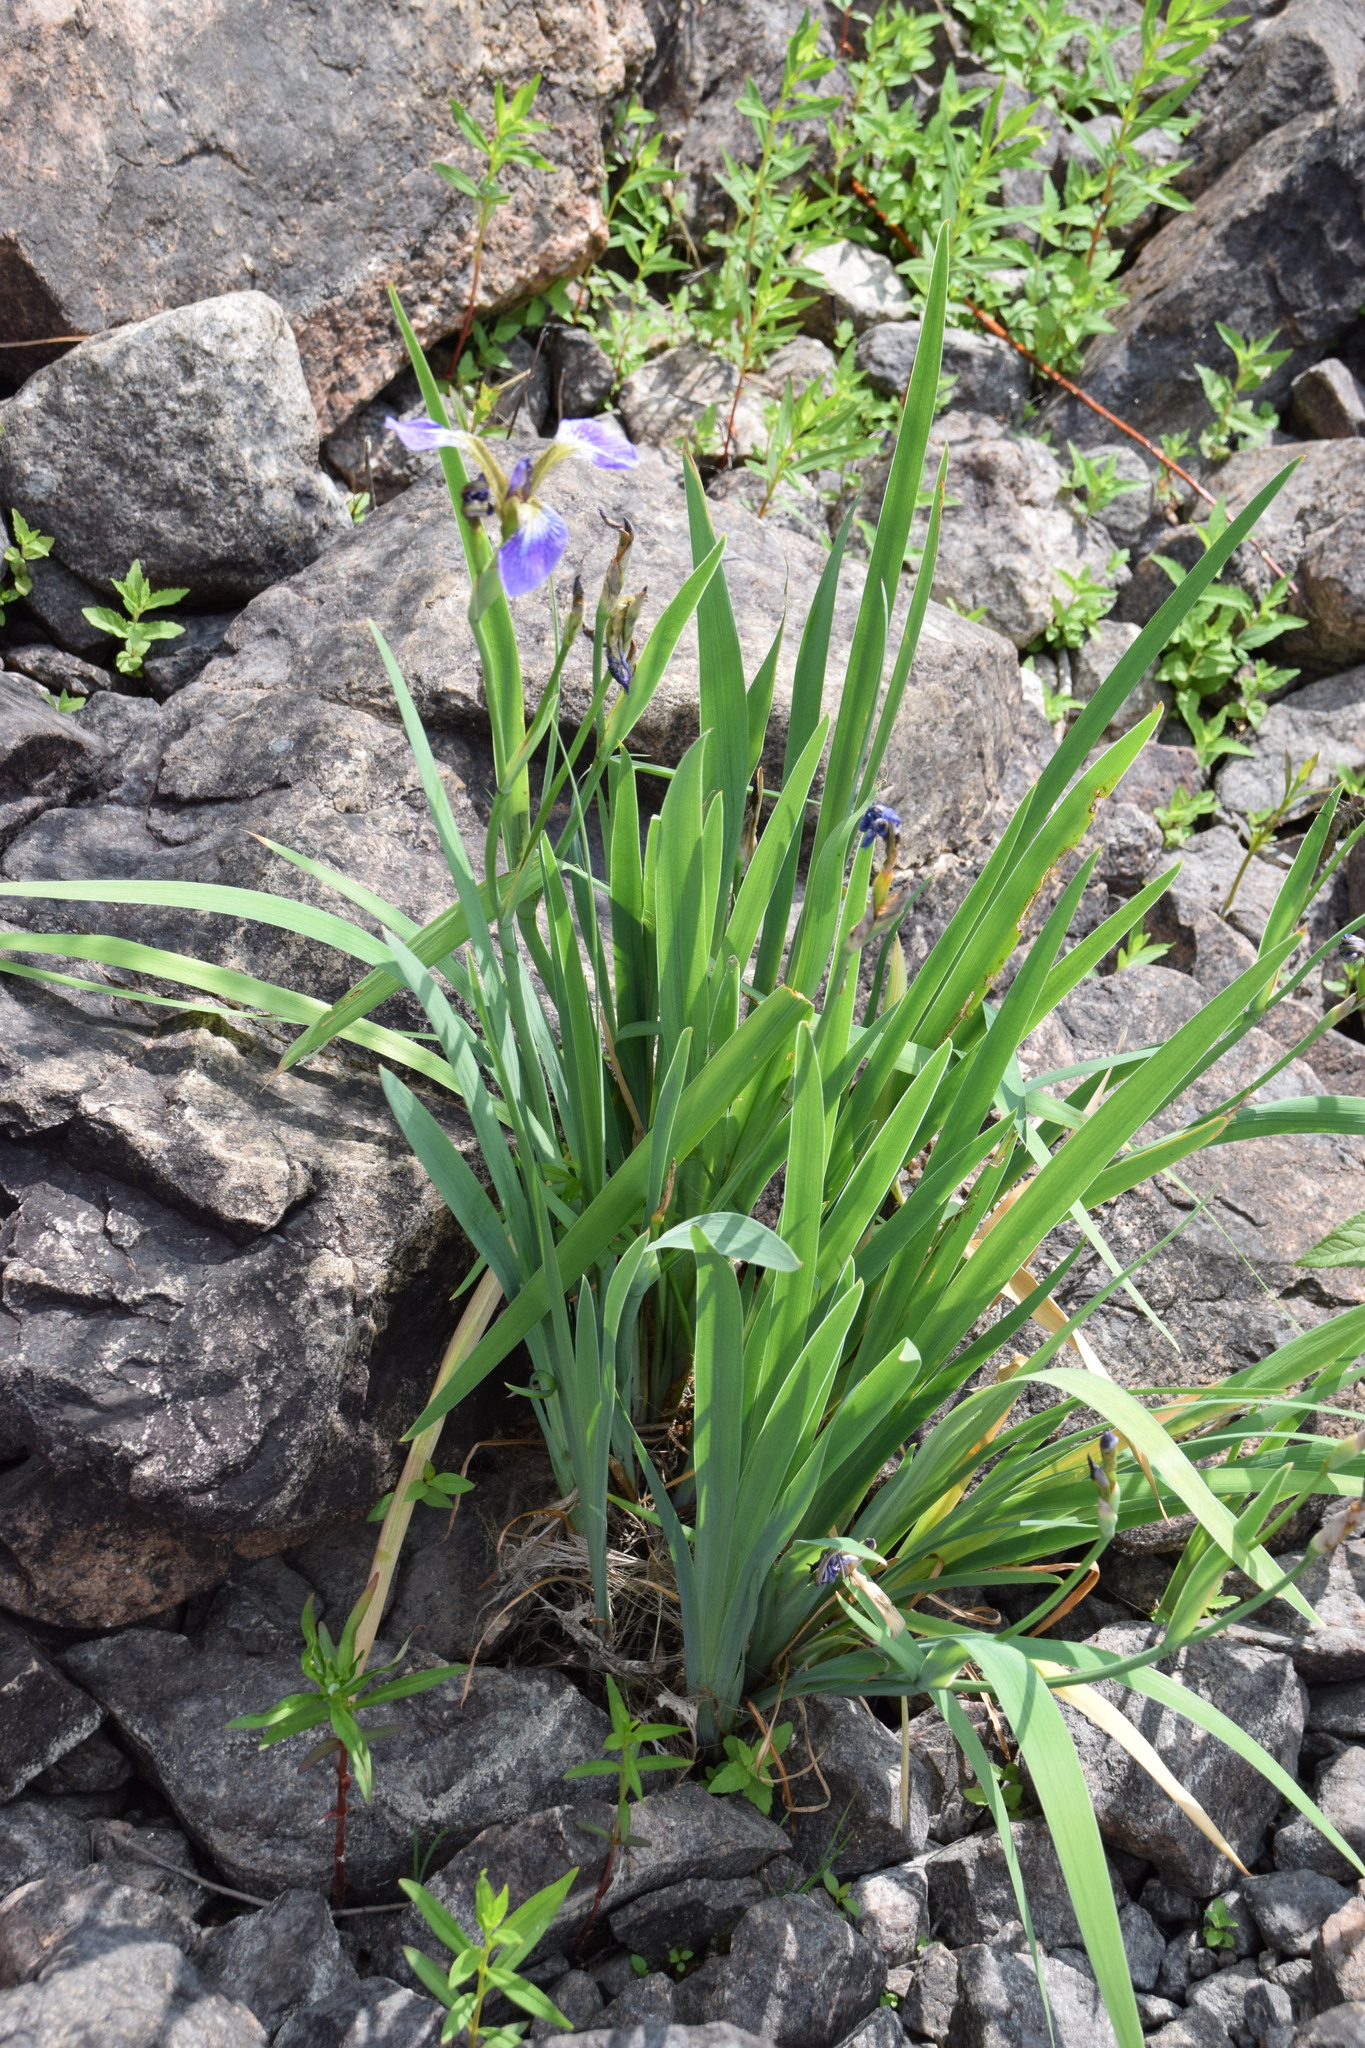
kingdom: Plantae
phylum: Tracheophyta
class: Liliopsida
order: Asparagales
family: Iridaceae
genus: Iris
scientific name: Iris versicolor
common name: Purple iris
